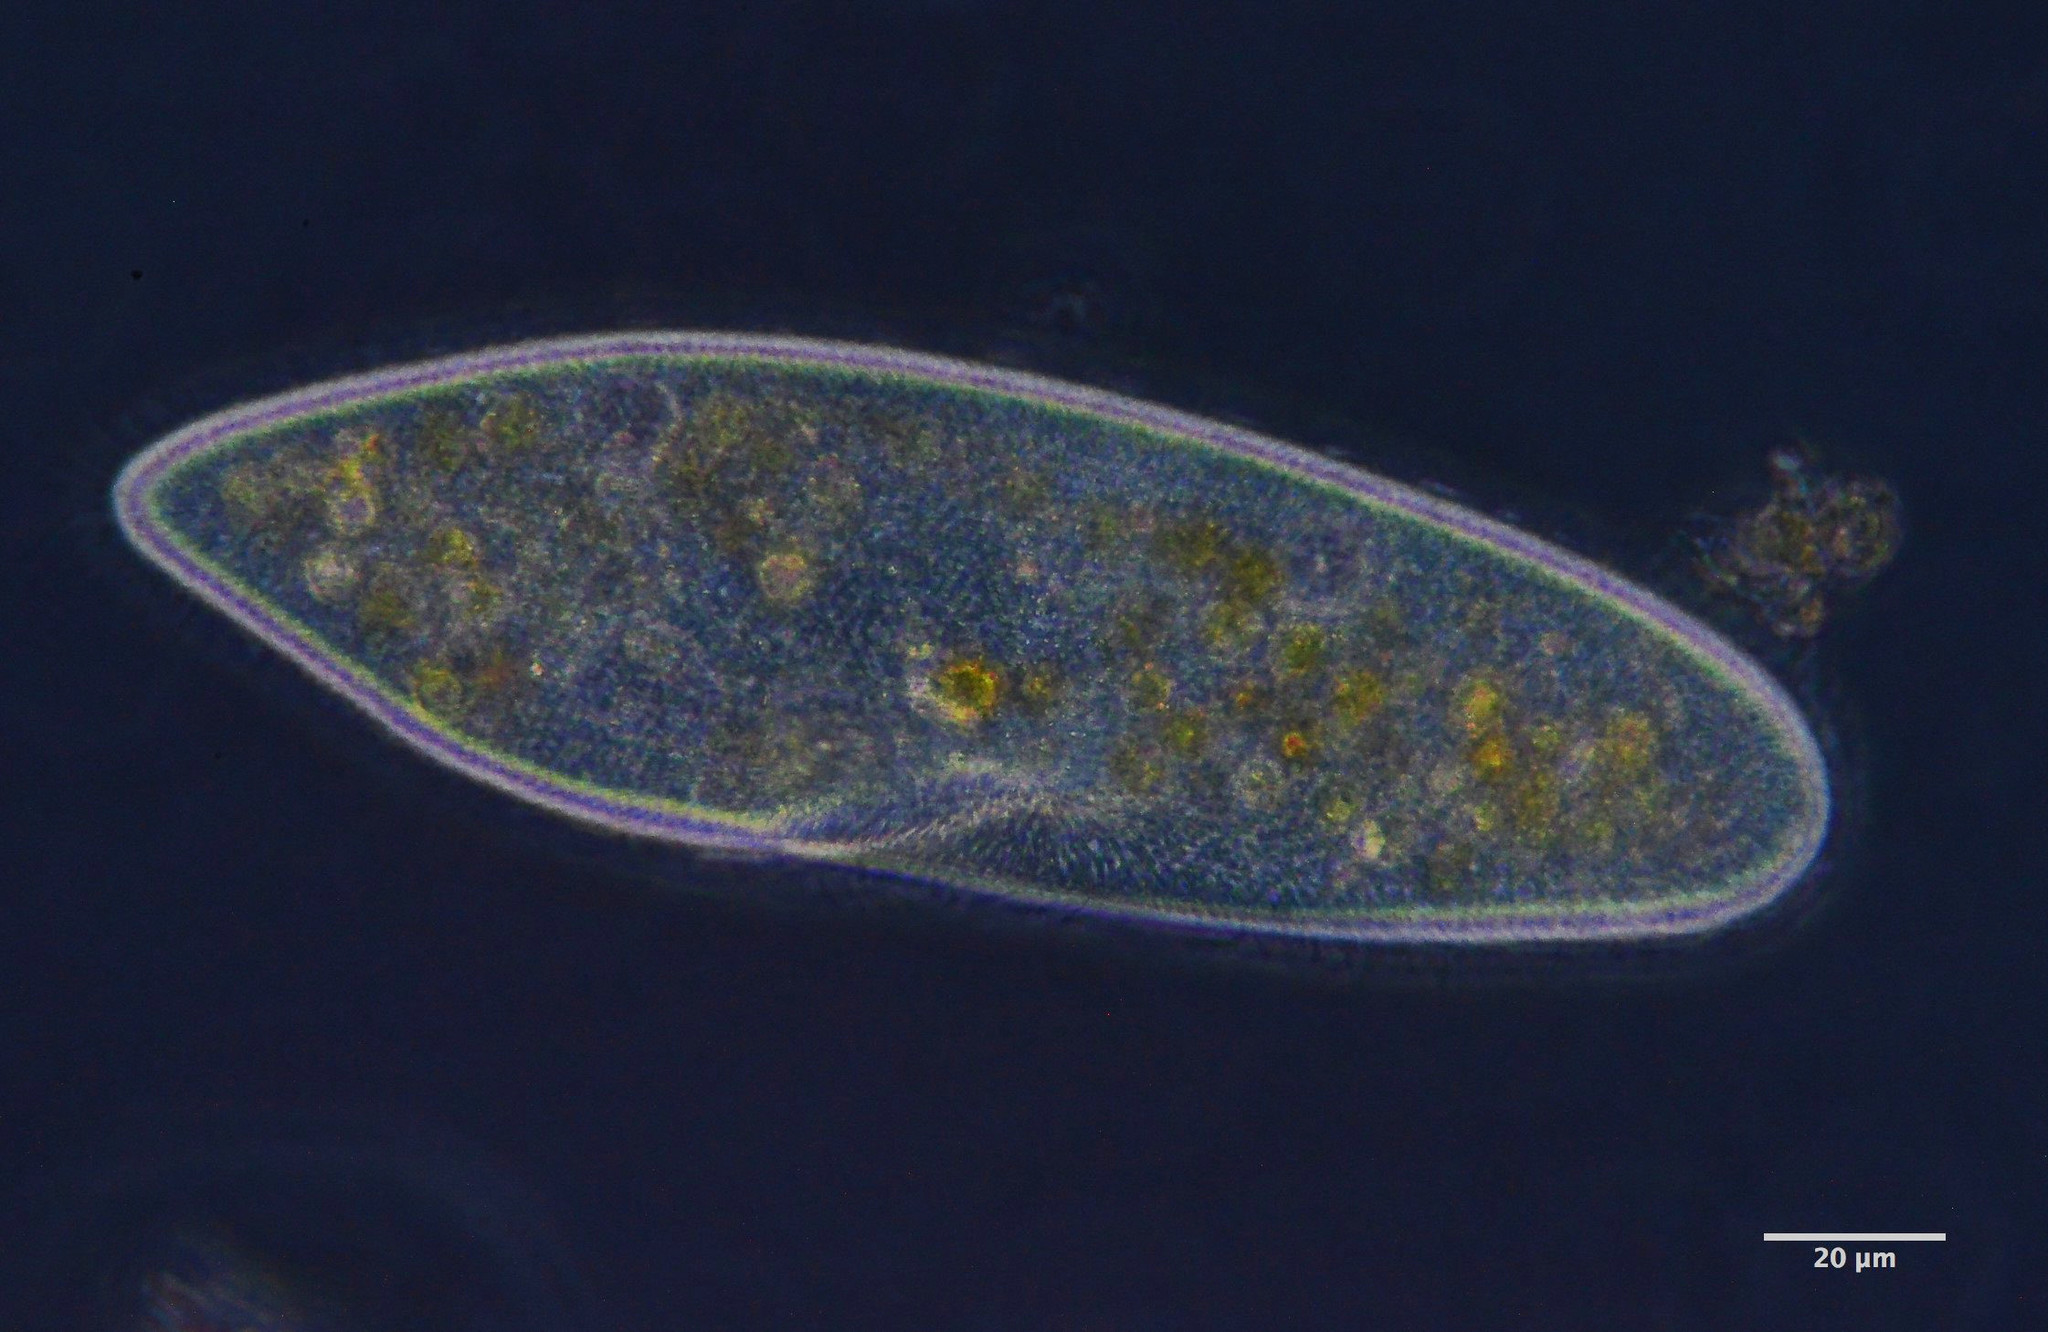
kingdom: Chromista
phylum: Ciliophora
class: Oligohymenophorea
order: Peniculida
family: Parameciidae
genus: Paramecium
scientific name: Paramecium caudatum
